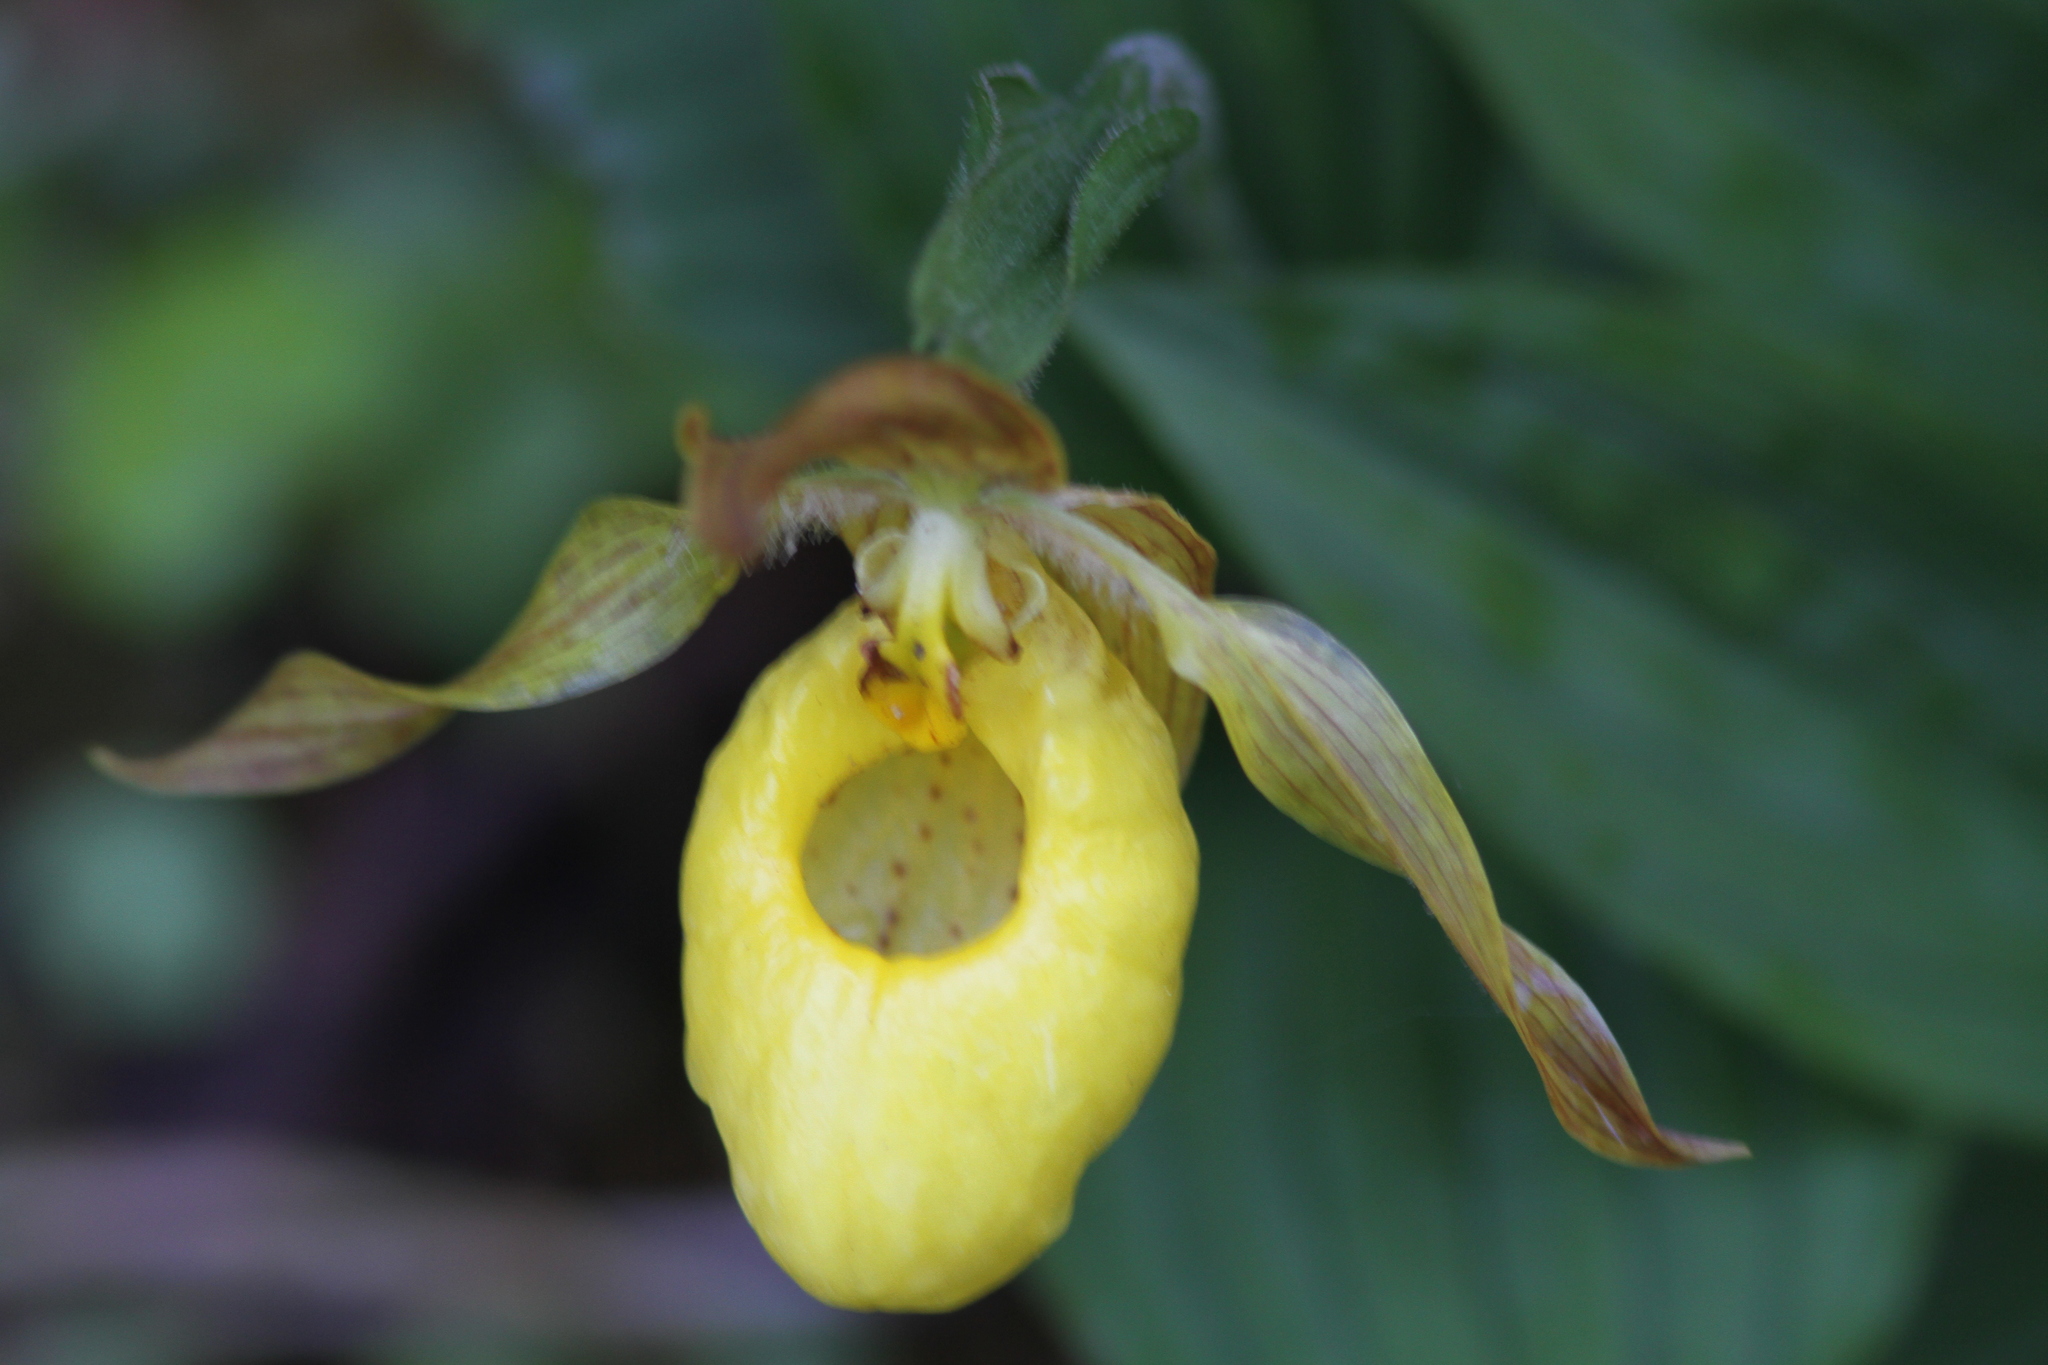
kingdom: Plantae
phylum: Tracheophyta
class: Liliopsida
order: Asparagales
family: Orchidaceae
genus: Cypripedium
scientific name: Cypripedium parviflorum
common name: American yellow lady's-slipper
